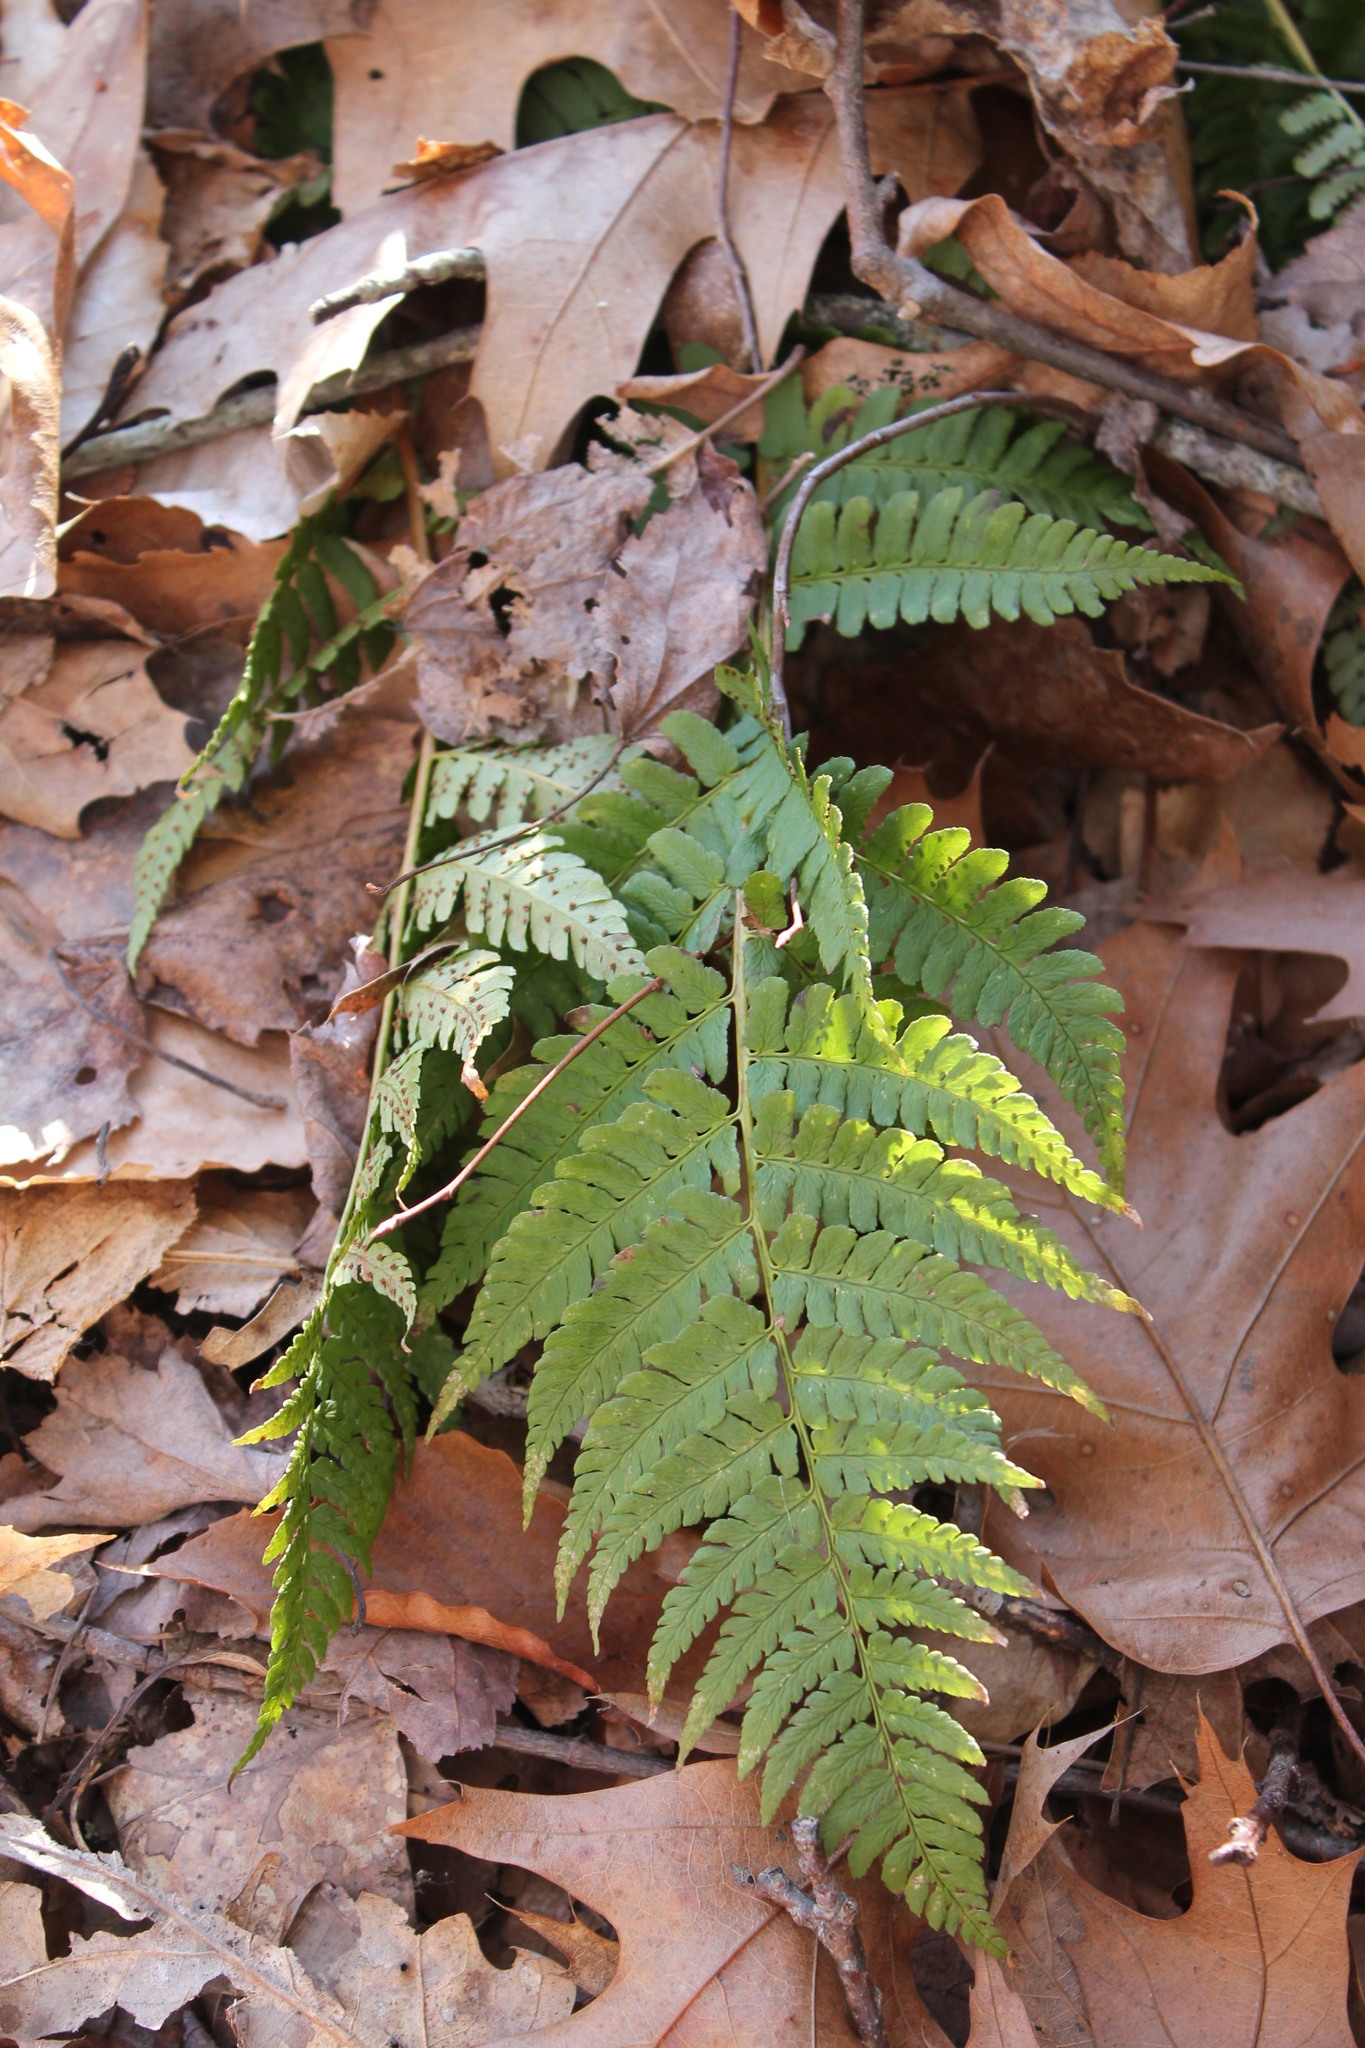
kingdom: Plantae
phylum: Tracheophyta
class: Polypodiopsida
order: Polypodiales
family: Dryopteridaceae
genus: Dryopteris
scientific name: Dryopteris marginalis
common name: Marginal wood fern
